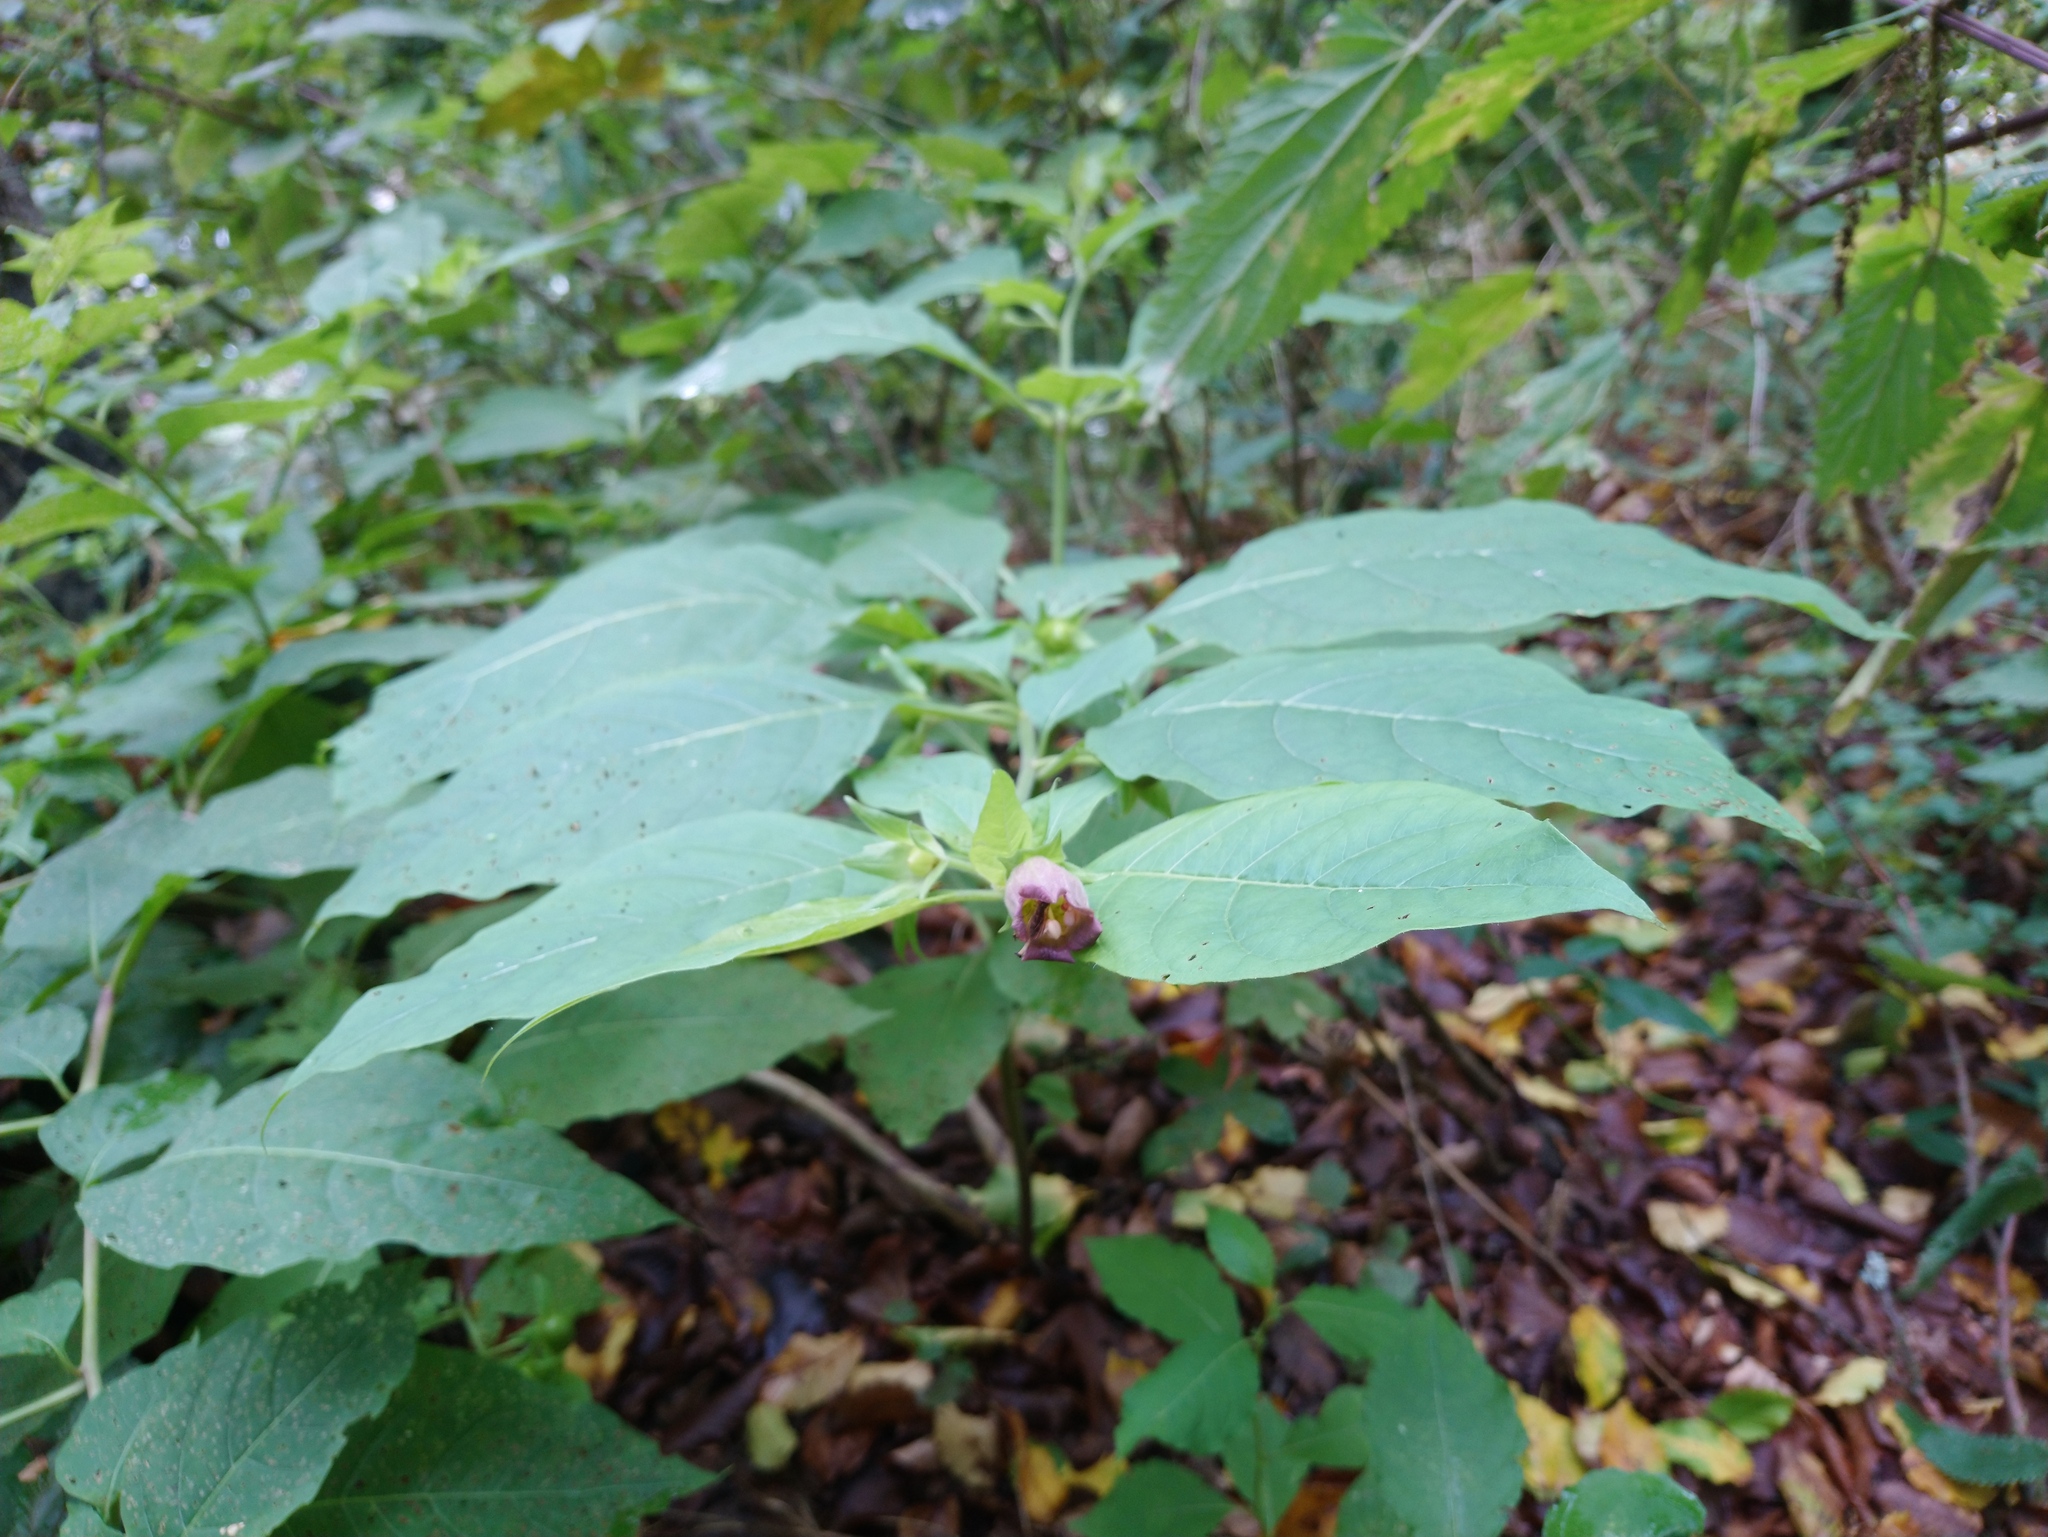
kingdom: Plantae
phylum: Tracheophyta
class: Magnoliopsida
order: Solanales
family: Solanaceae
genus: Atropa
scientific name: Atropa belladonna
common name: Deadly nightshade
